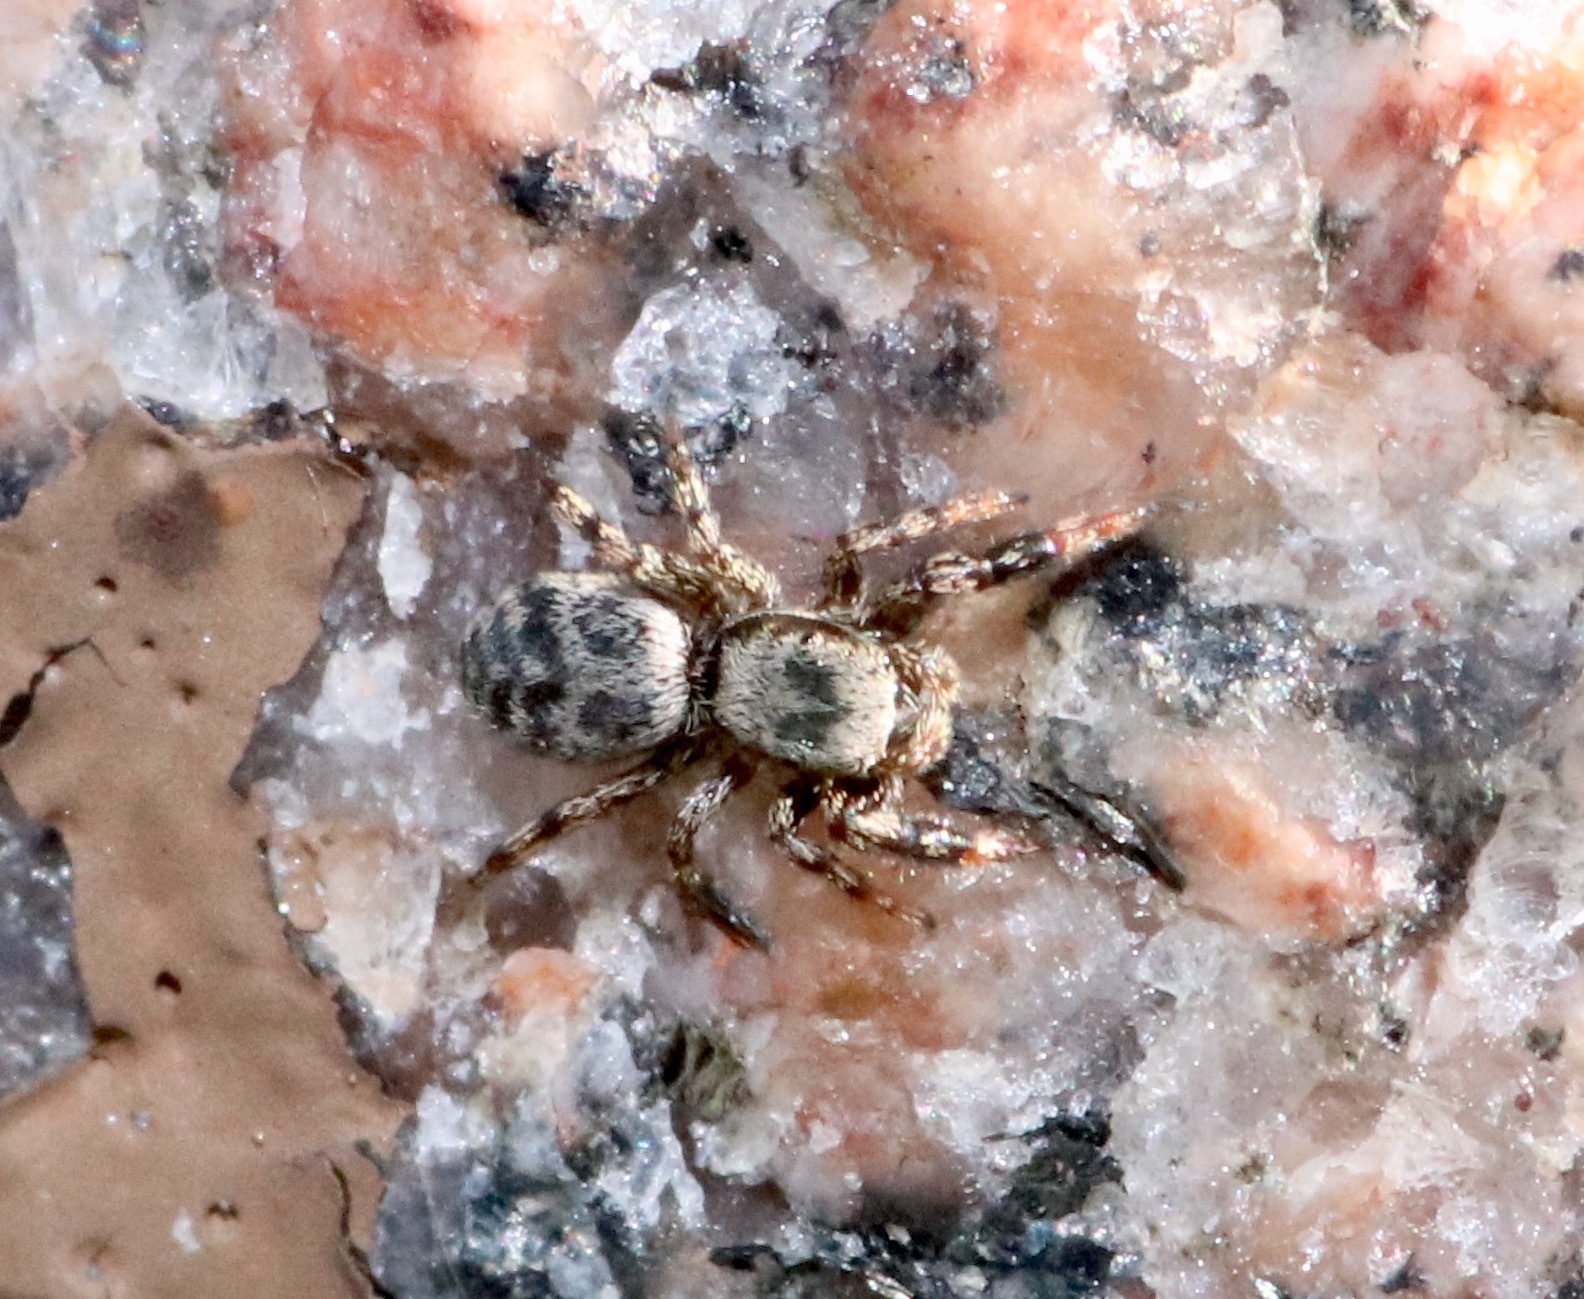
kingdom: Animalia
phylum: Arthropoda
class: Arachnida
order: Araneae
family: Salticidae
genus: Tutelina
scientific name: Tutelina harti
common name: Hart's jumping spider
